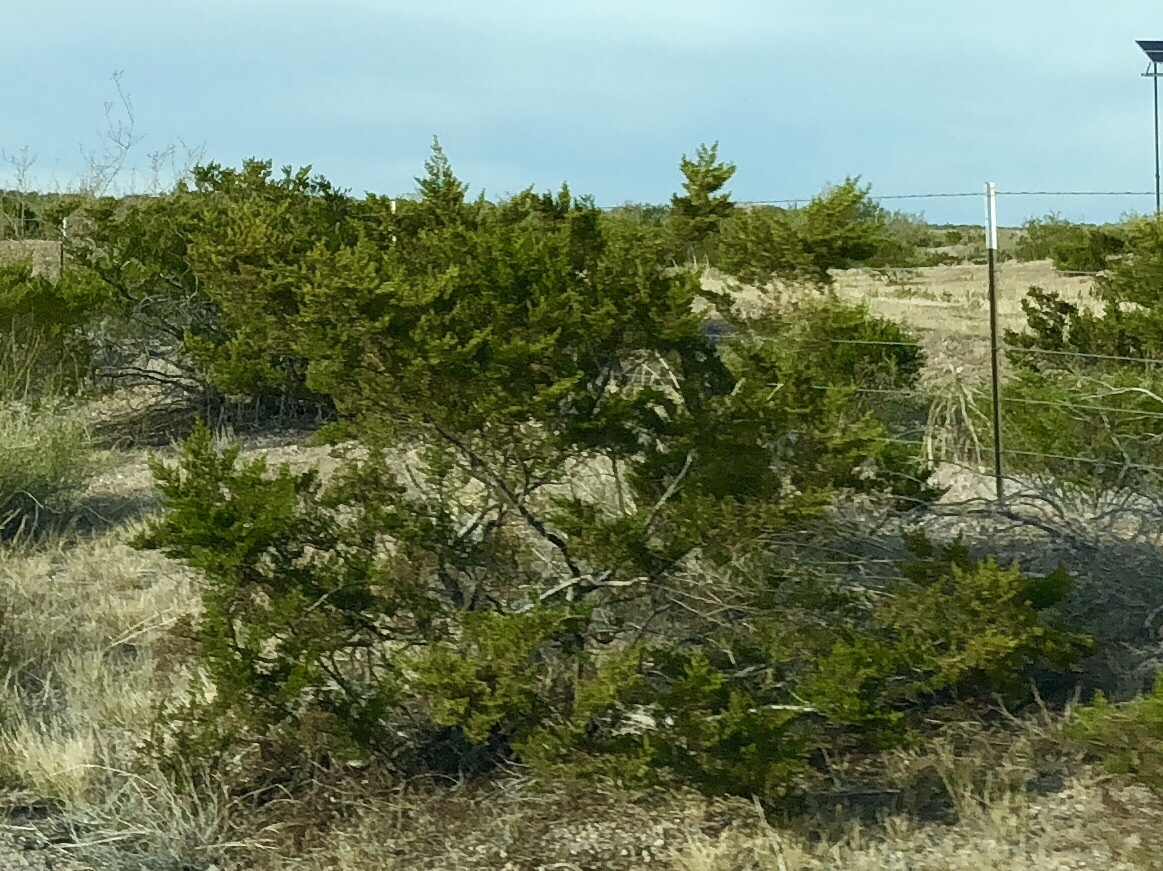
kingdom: Plantae
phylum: Tracheophyta
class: Magnoliopsida
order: Zygophyllales
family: Zygophyllaceae
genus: Larrea
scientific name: Larrea tridentata
